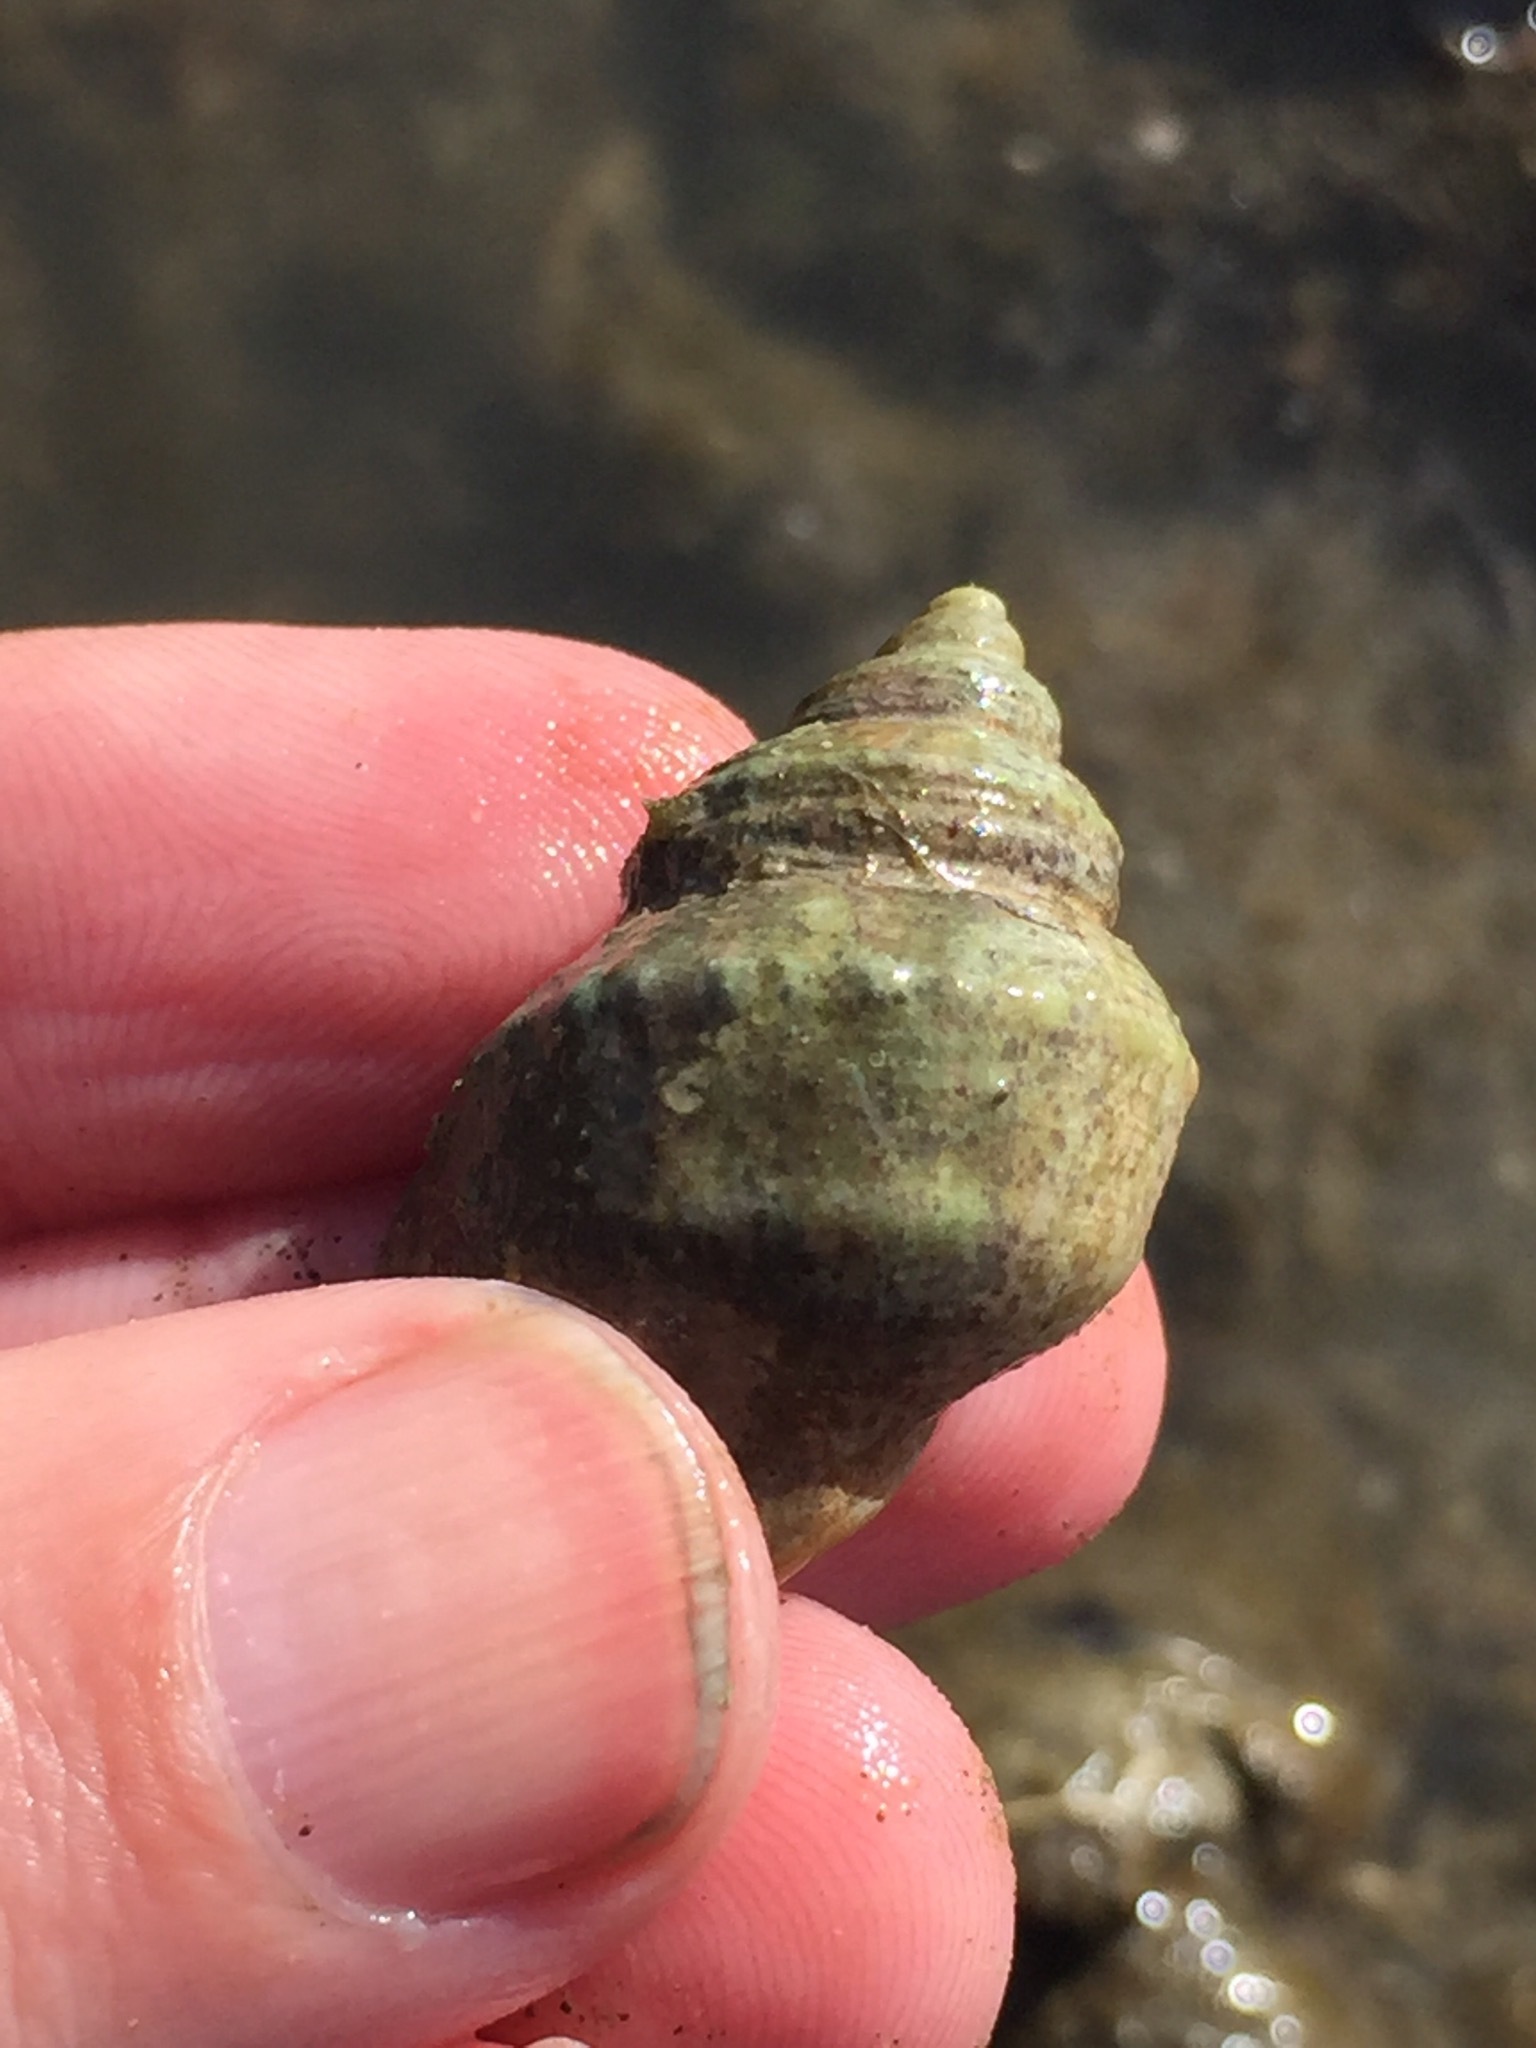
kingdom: Animalia
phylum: Mollusca
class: Gastropoda
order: Littorinimorpha
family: Struthiolariidae
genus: Pelicaria
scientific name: Pelicaria vermis
